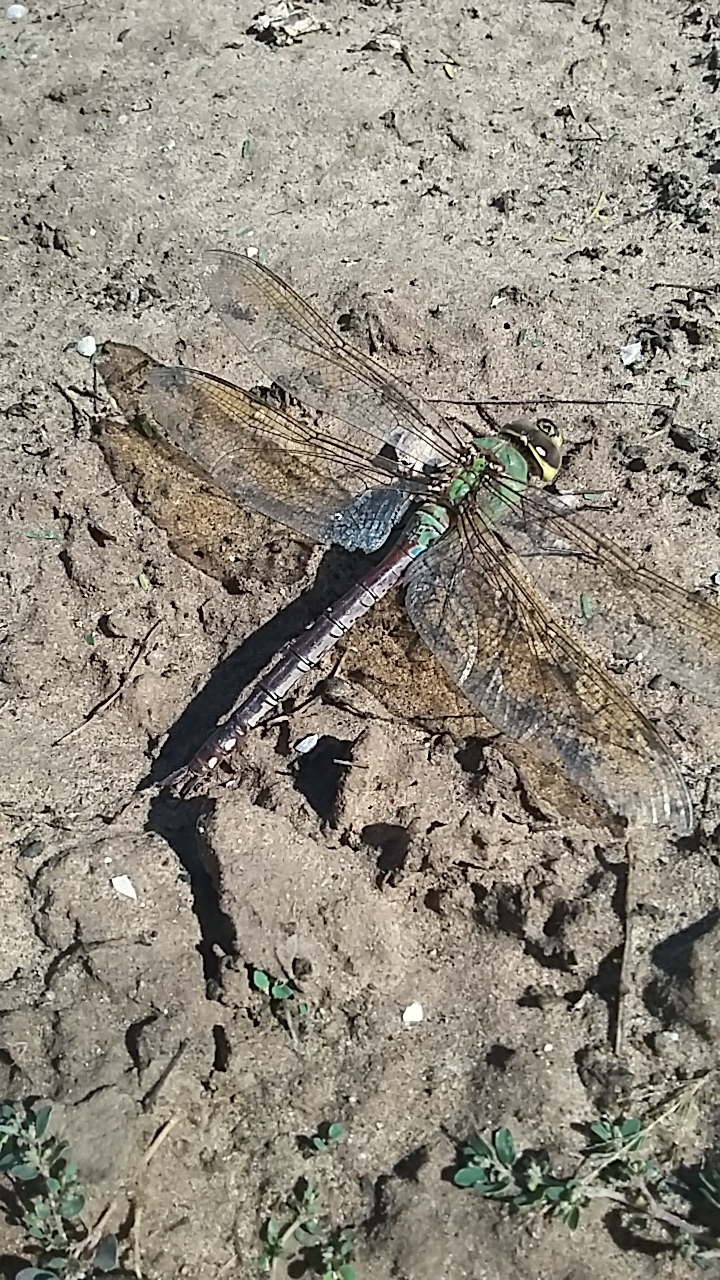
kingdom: Animalia
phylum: Arthropoda
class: Insecta
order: Odonata
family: Aeshnidae
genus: Anax
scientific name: Anax junius
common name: Common green darner
